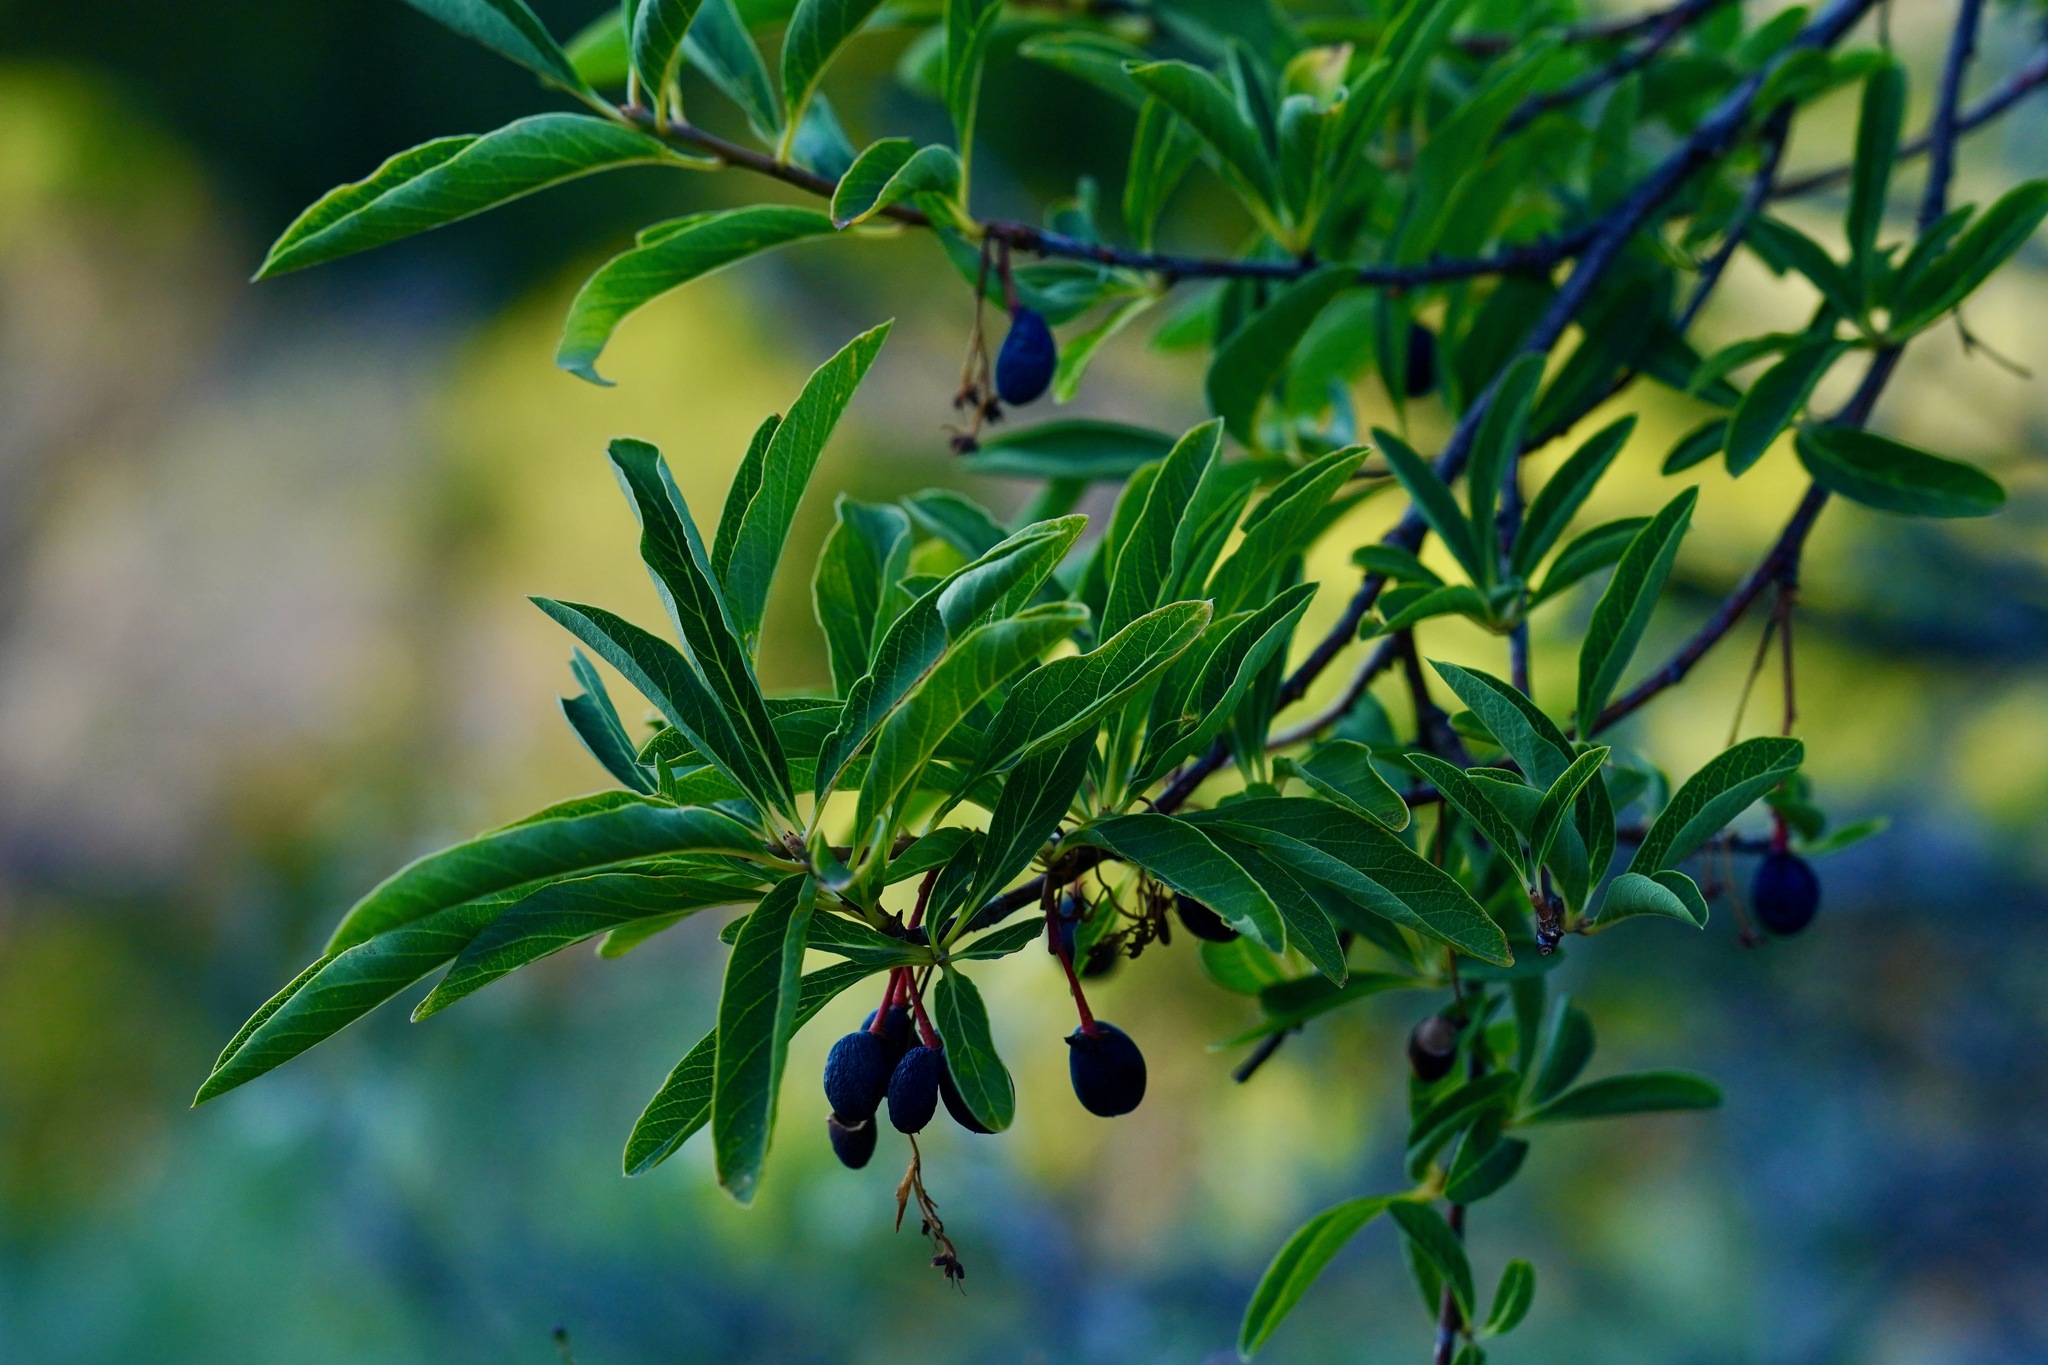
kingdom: Plantae
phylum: Tracheophyta
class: Magnoliopsida
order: Rosales
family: Rosaceae
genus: Oemleria
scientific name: Oemleria cerasiformis
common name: Osoberry
